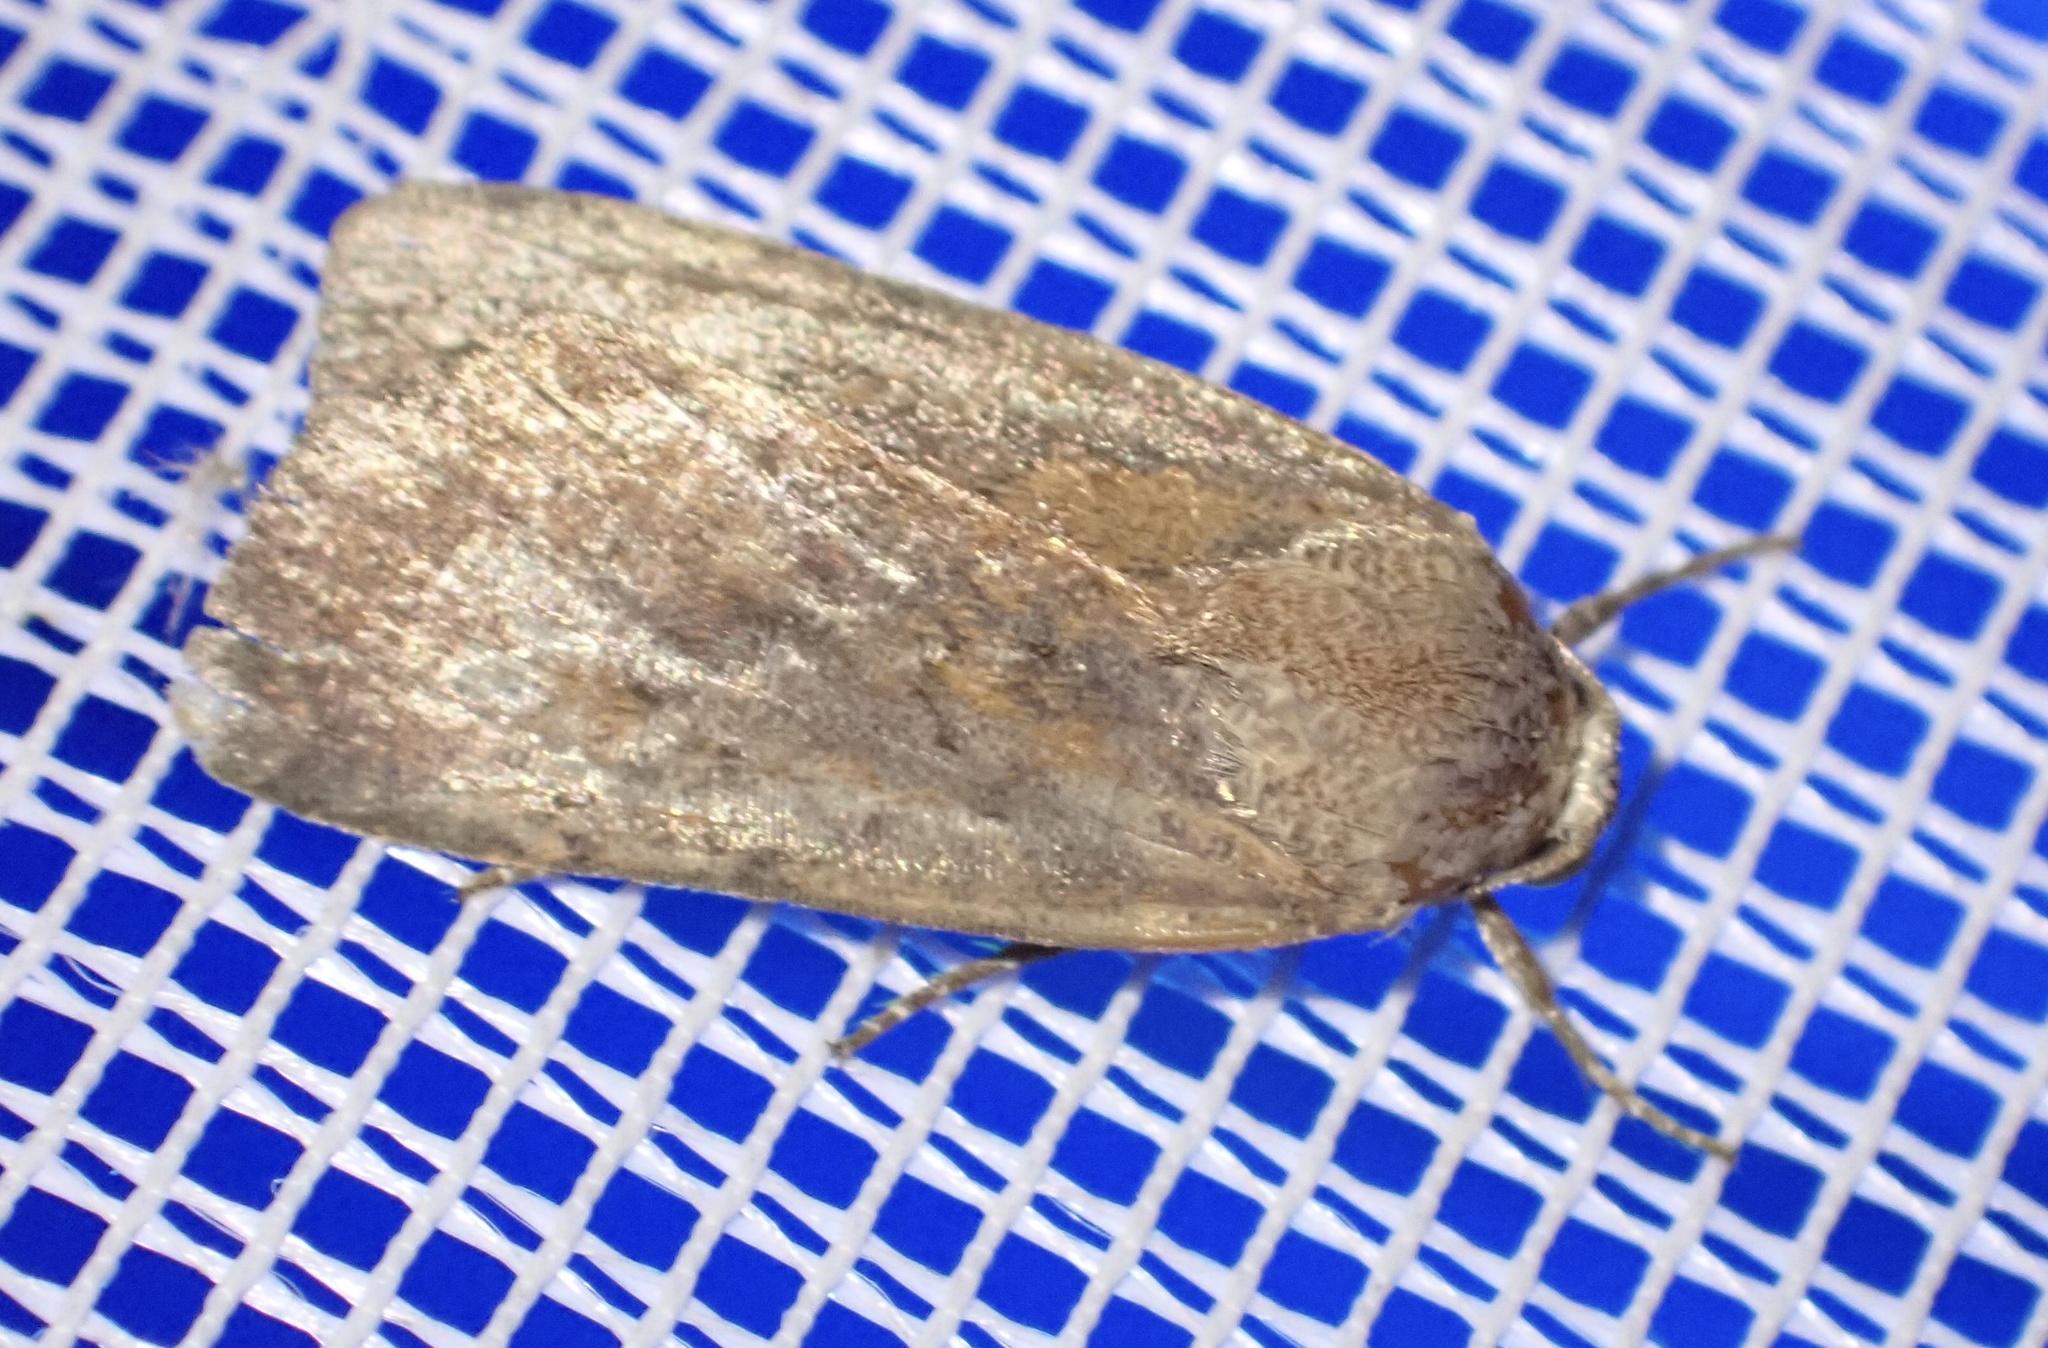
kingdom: Animalia
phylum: Arthropoda
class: Insecta
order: Lepidoptera
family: Noctuidae
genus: Noctua
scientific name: Noctua interjecta
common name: Least yellow underwing
